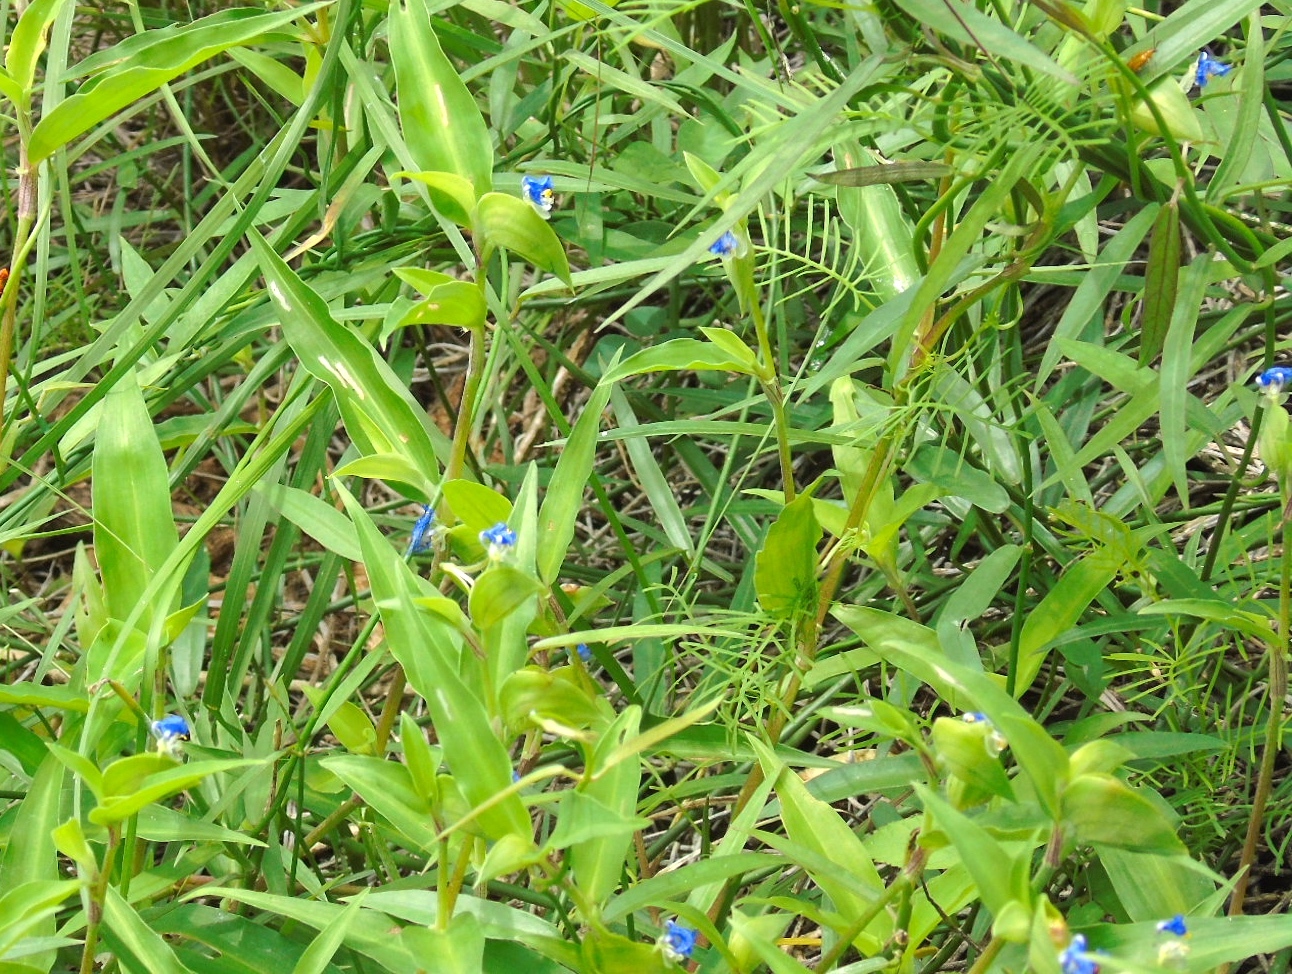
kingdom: Plantae
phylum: Tracheophyta
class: Liliopsida
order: Commelinales
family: Commelinaceae
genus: Commelina
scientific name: Commelina erecta
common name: Blousel blommetjie
